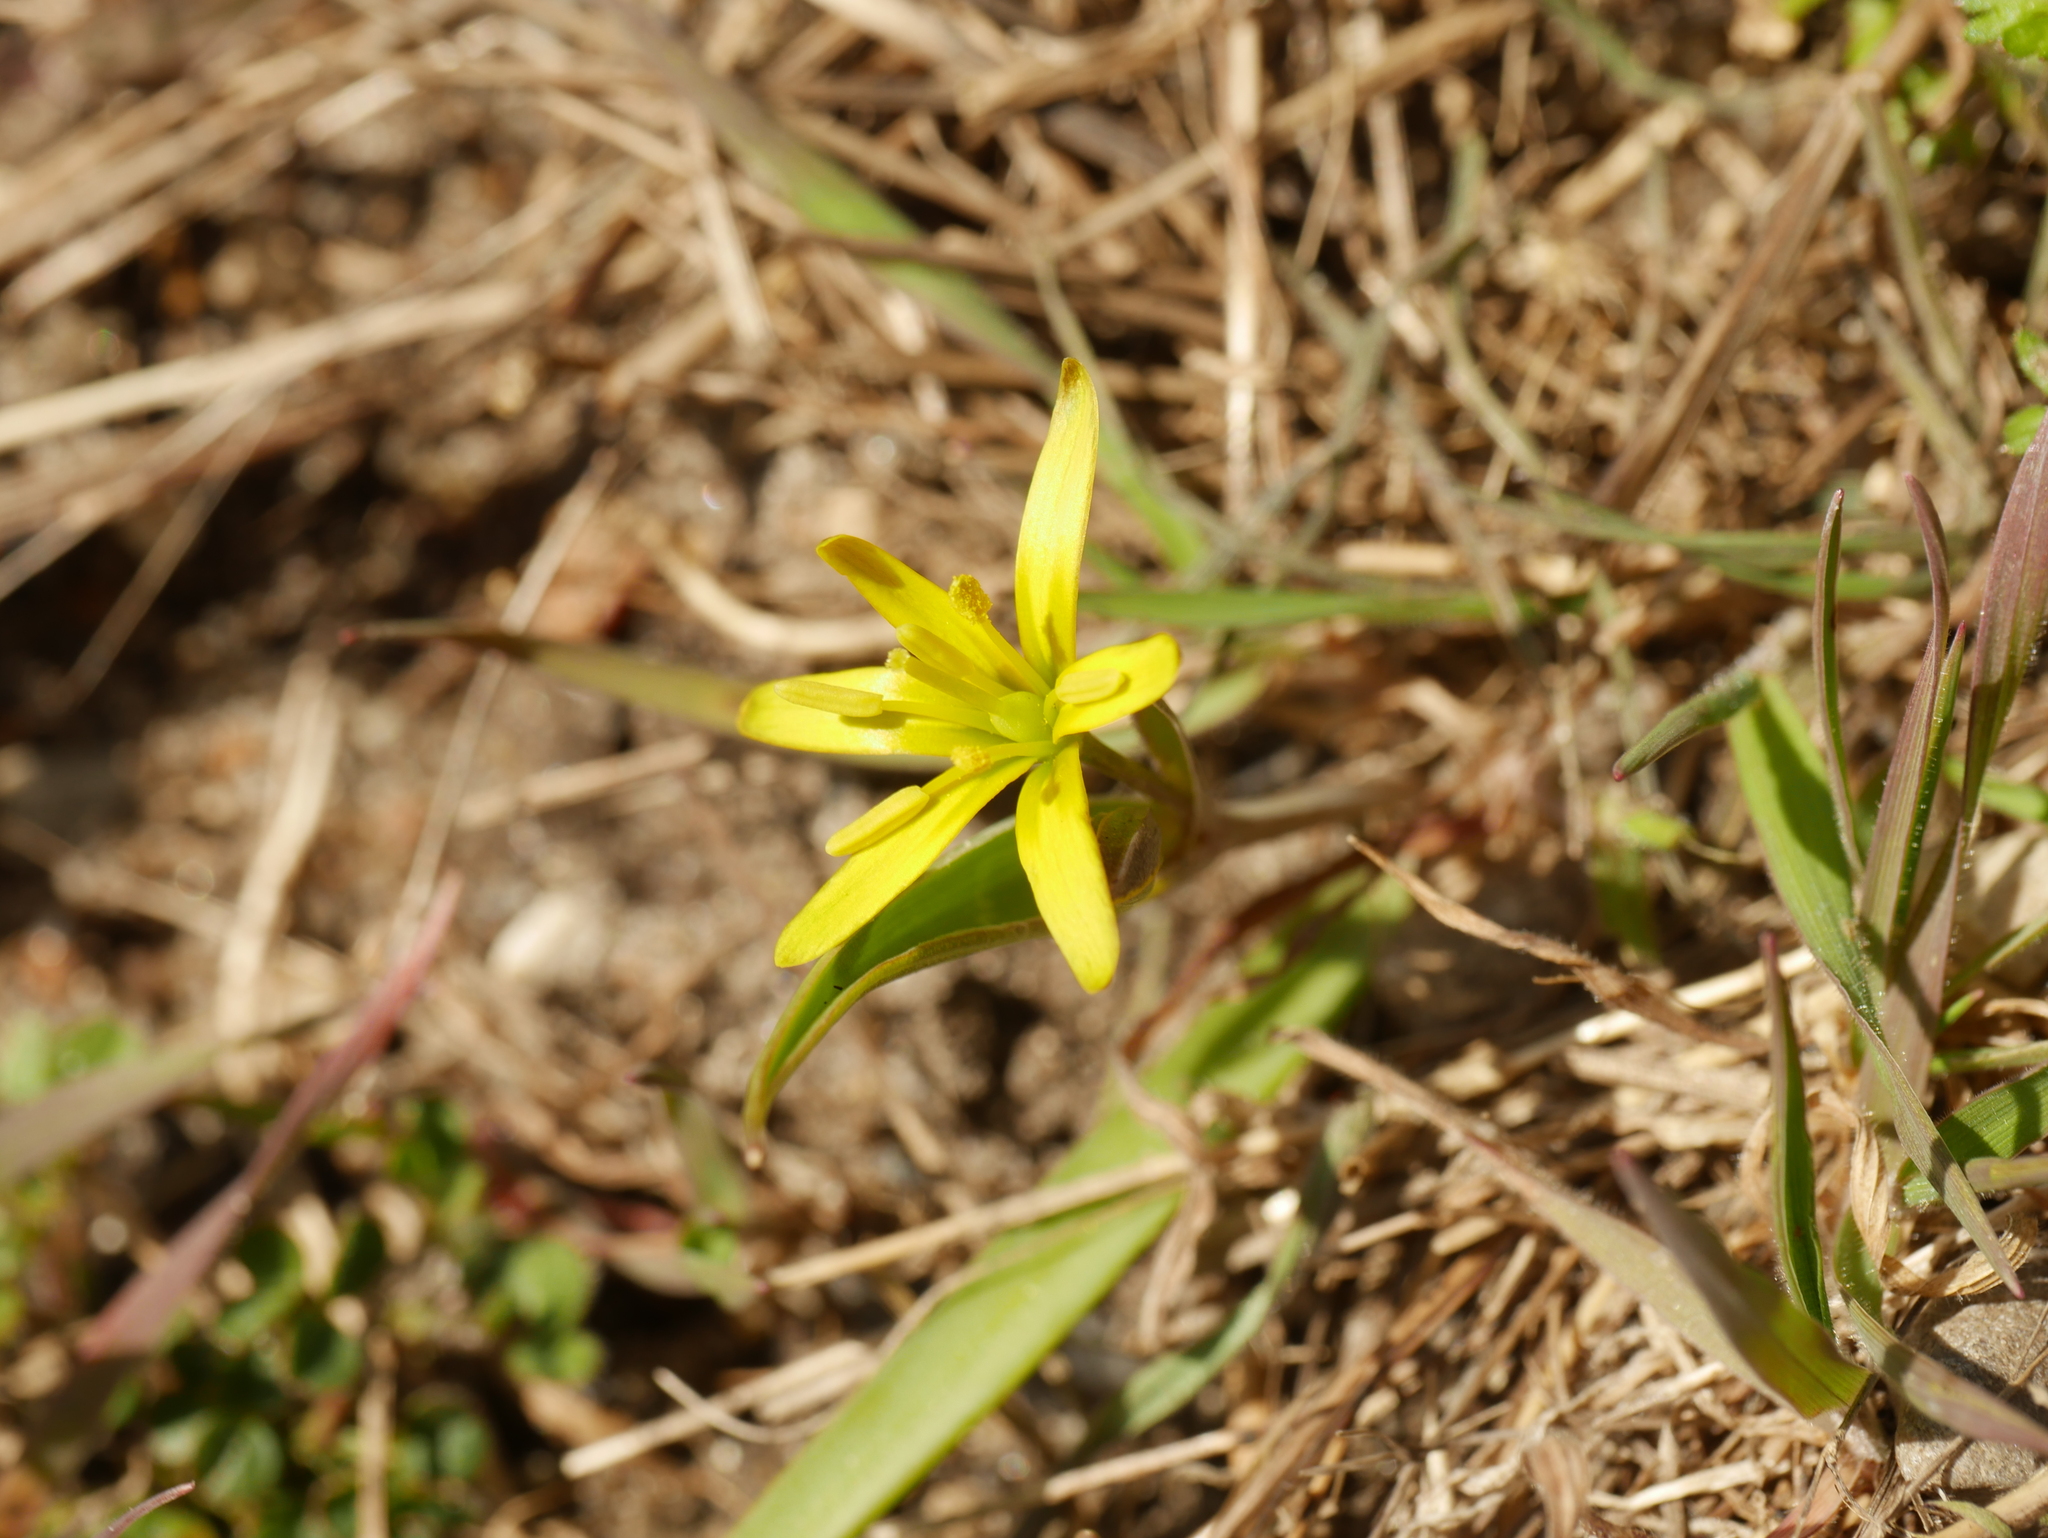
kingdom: Plantae
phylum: Tracheophyta
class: Liliopsida
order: Liliales
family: Liliaceae
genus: Gagea
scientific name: Gagea lutea
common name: Yellow star-of-bethlehem
